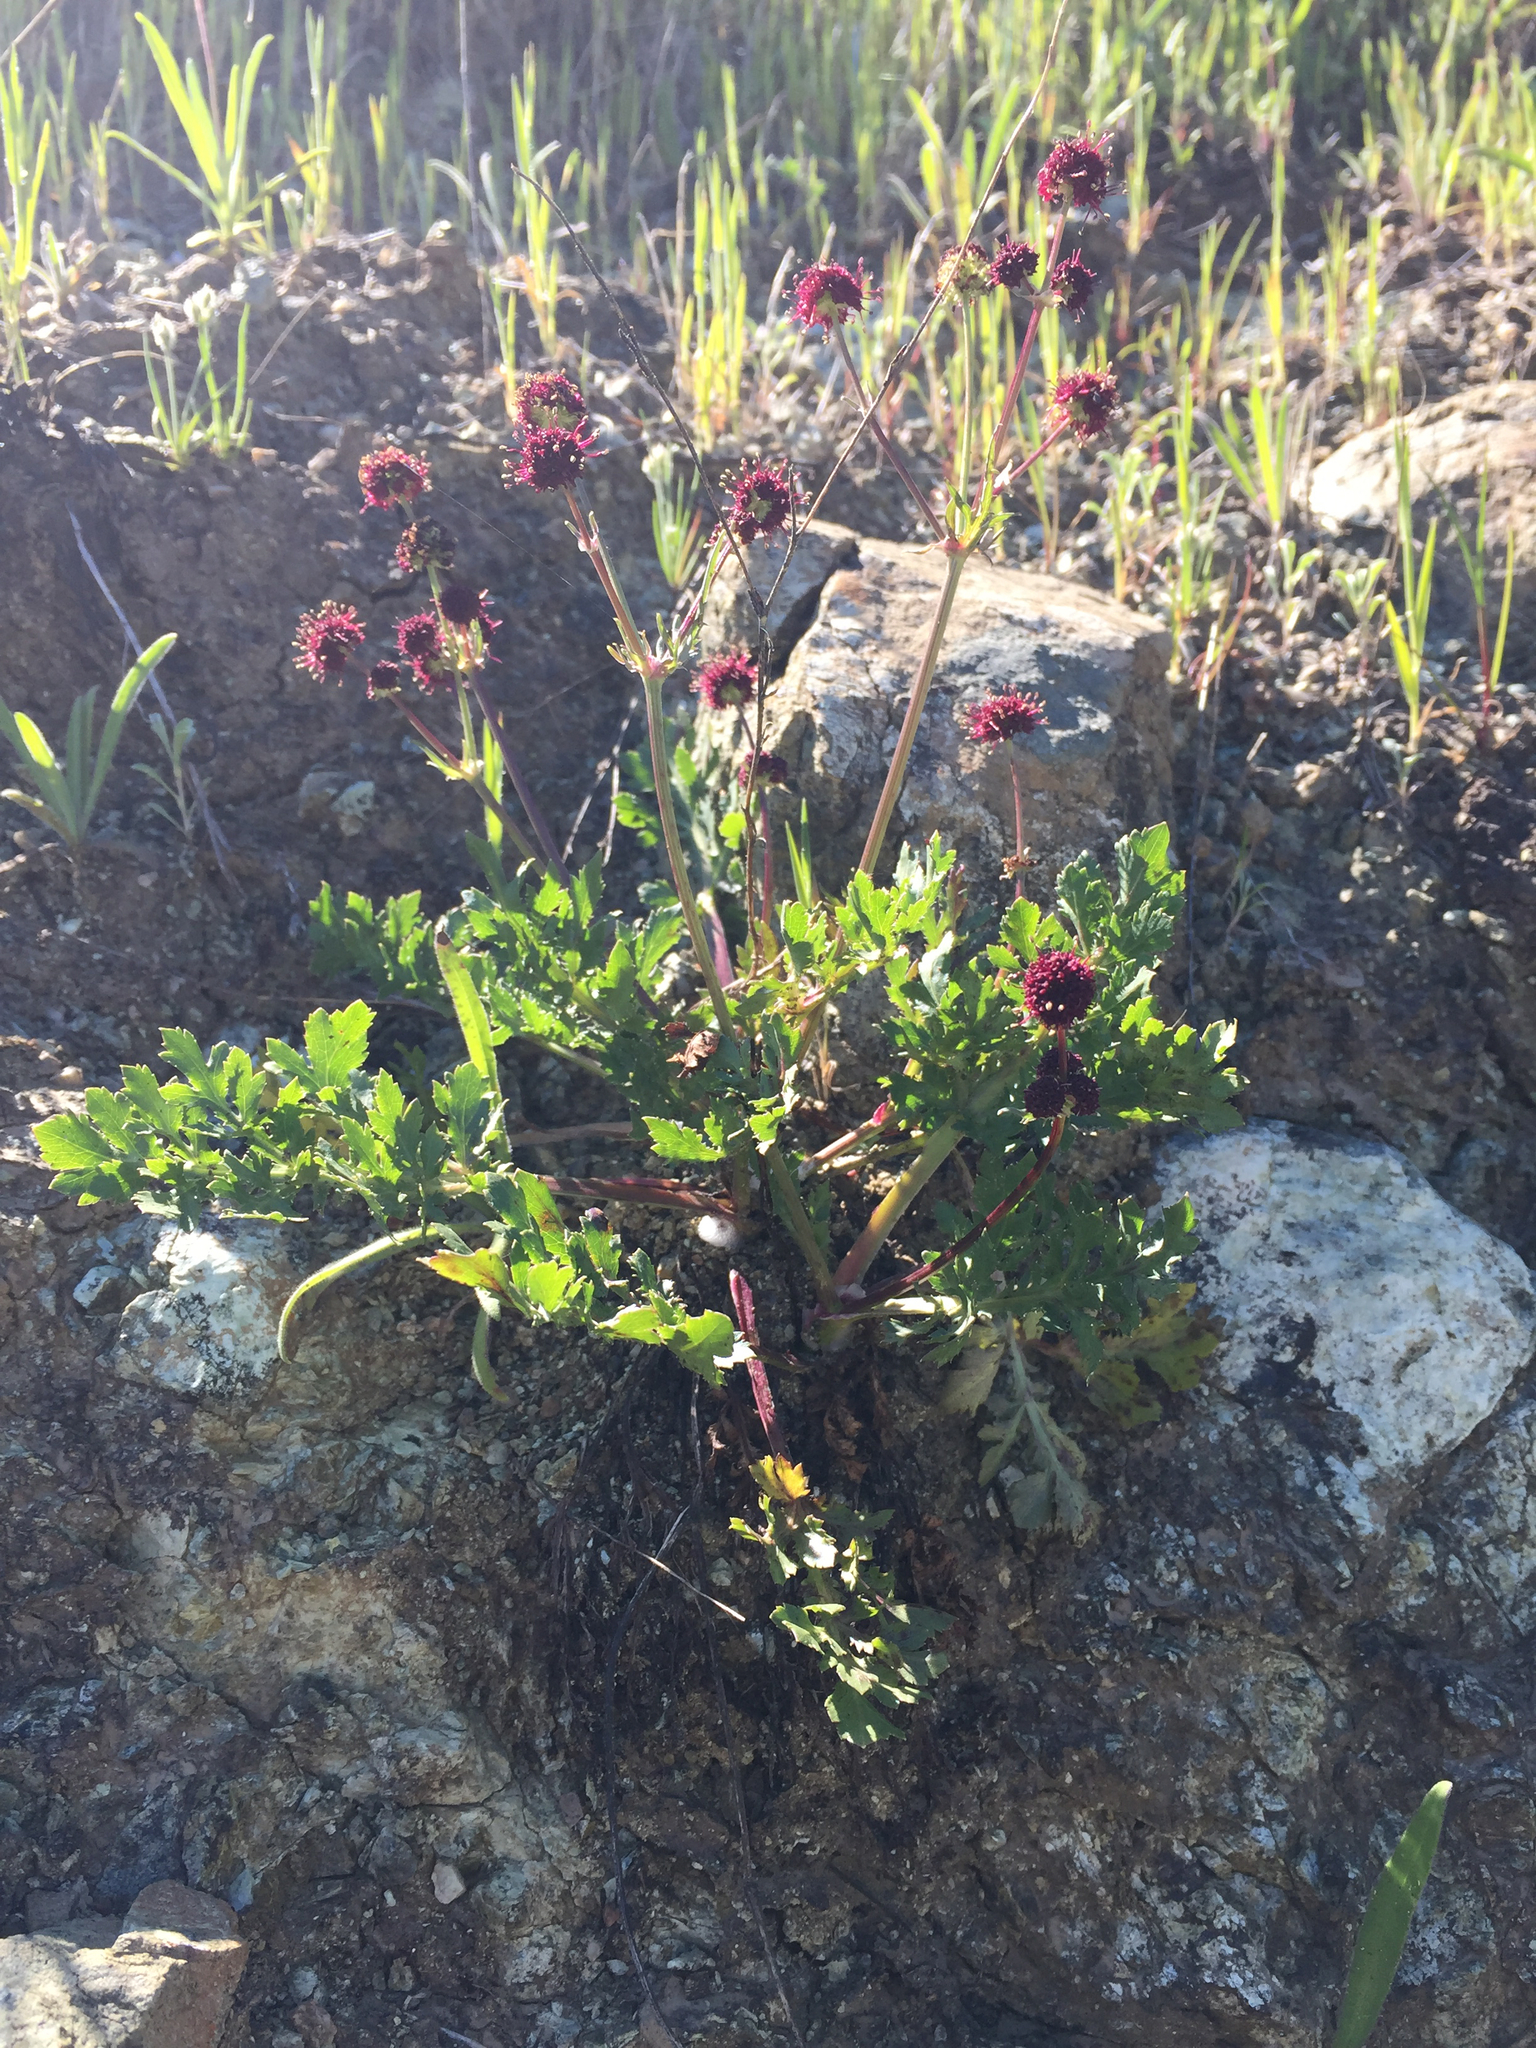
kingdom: Plantae
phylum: Tracheophyta
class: Magnoliopsida
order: Apiales
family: Apiaceae
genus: Sanicula
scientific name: Sanicula bipinnatifida
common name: Shoe-buttons
